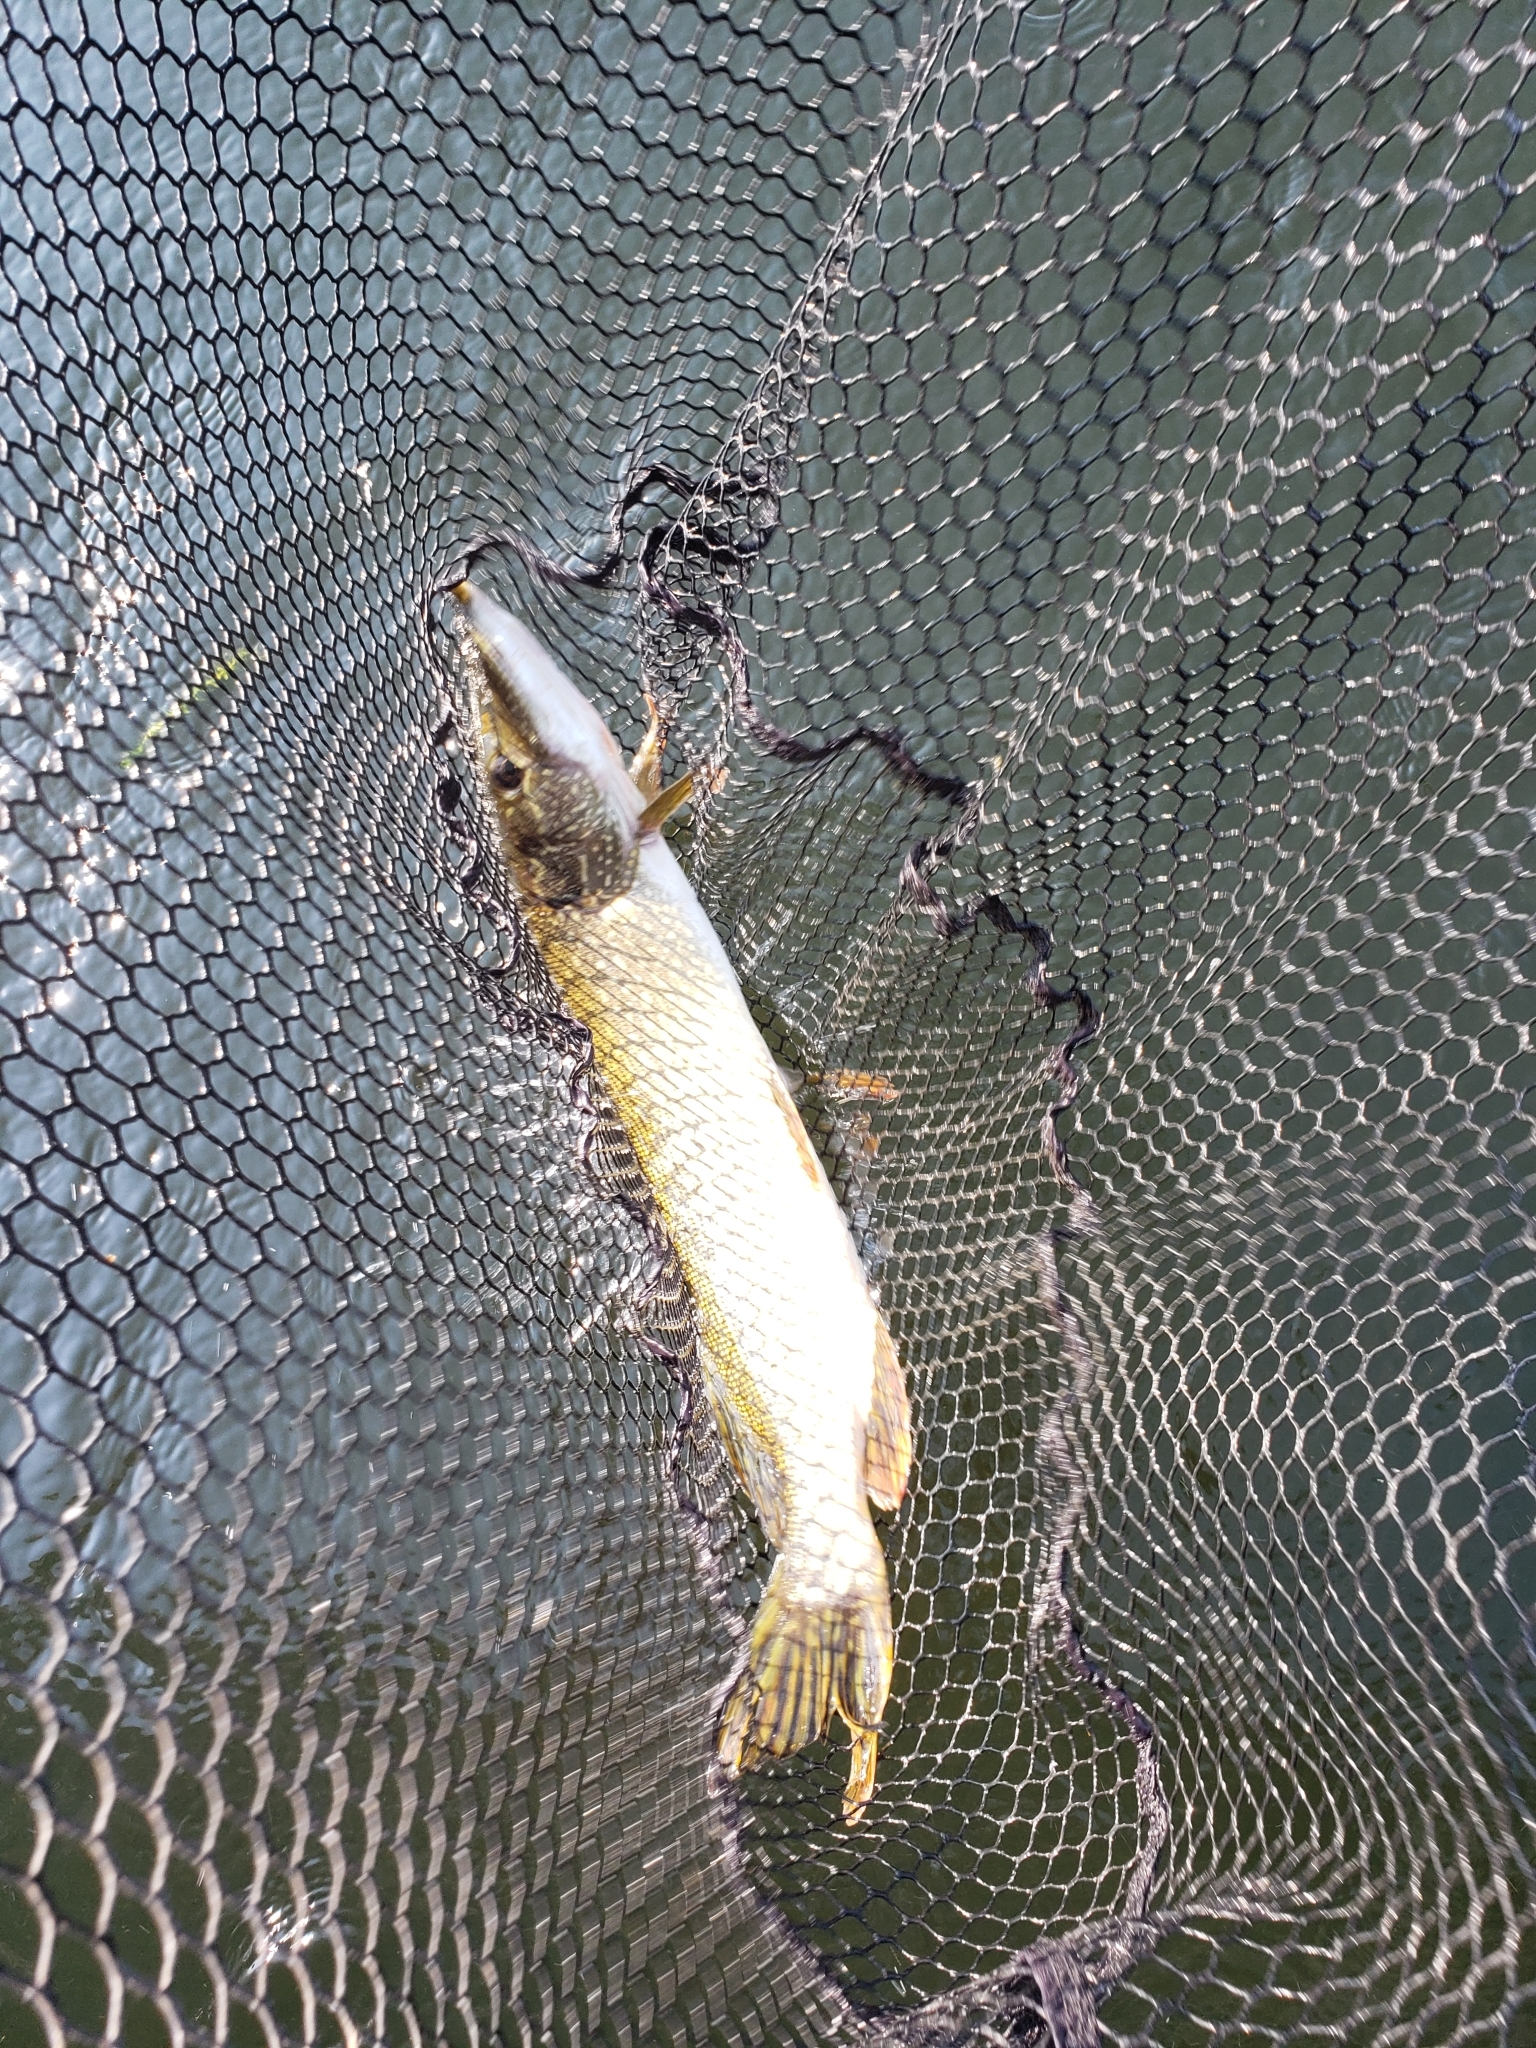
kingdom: Animalia
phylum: Chordata
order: Esociformes
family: Esocidae
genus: Esox
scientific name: Esox lucius
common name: Northern pike
